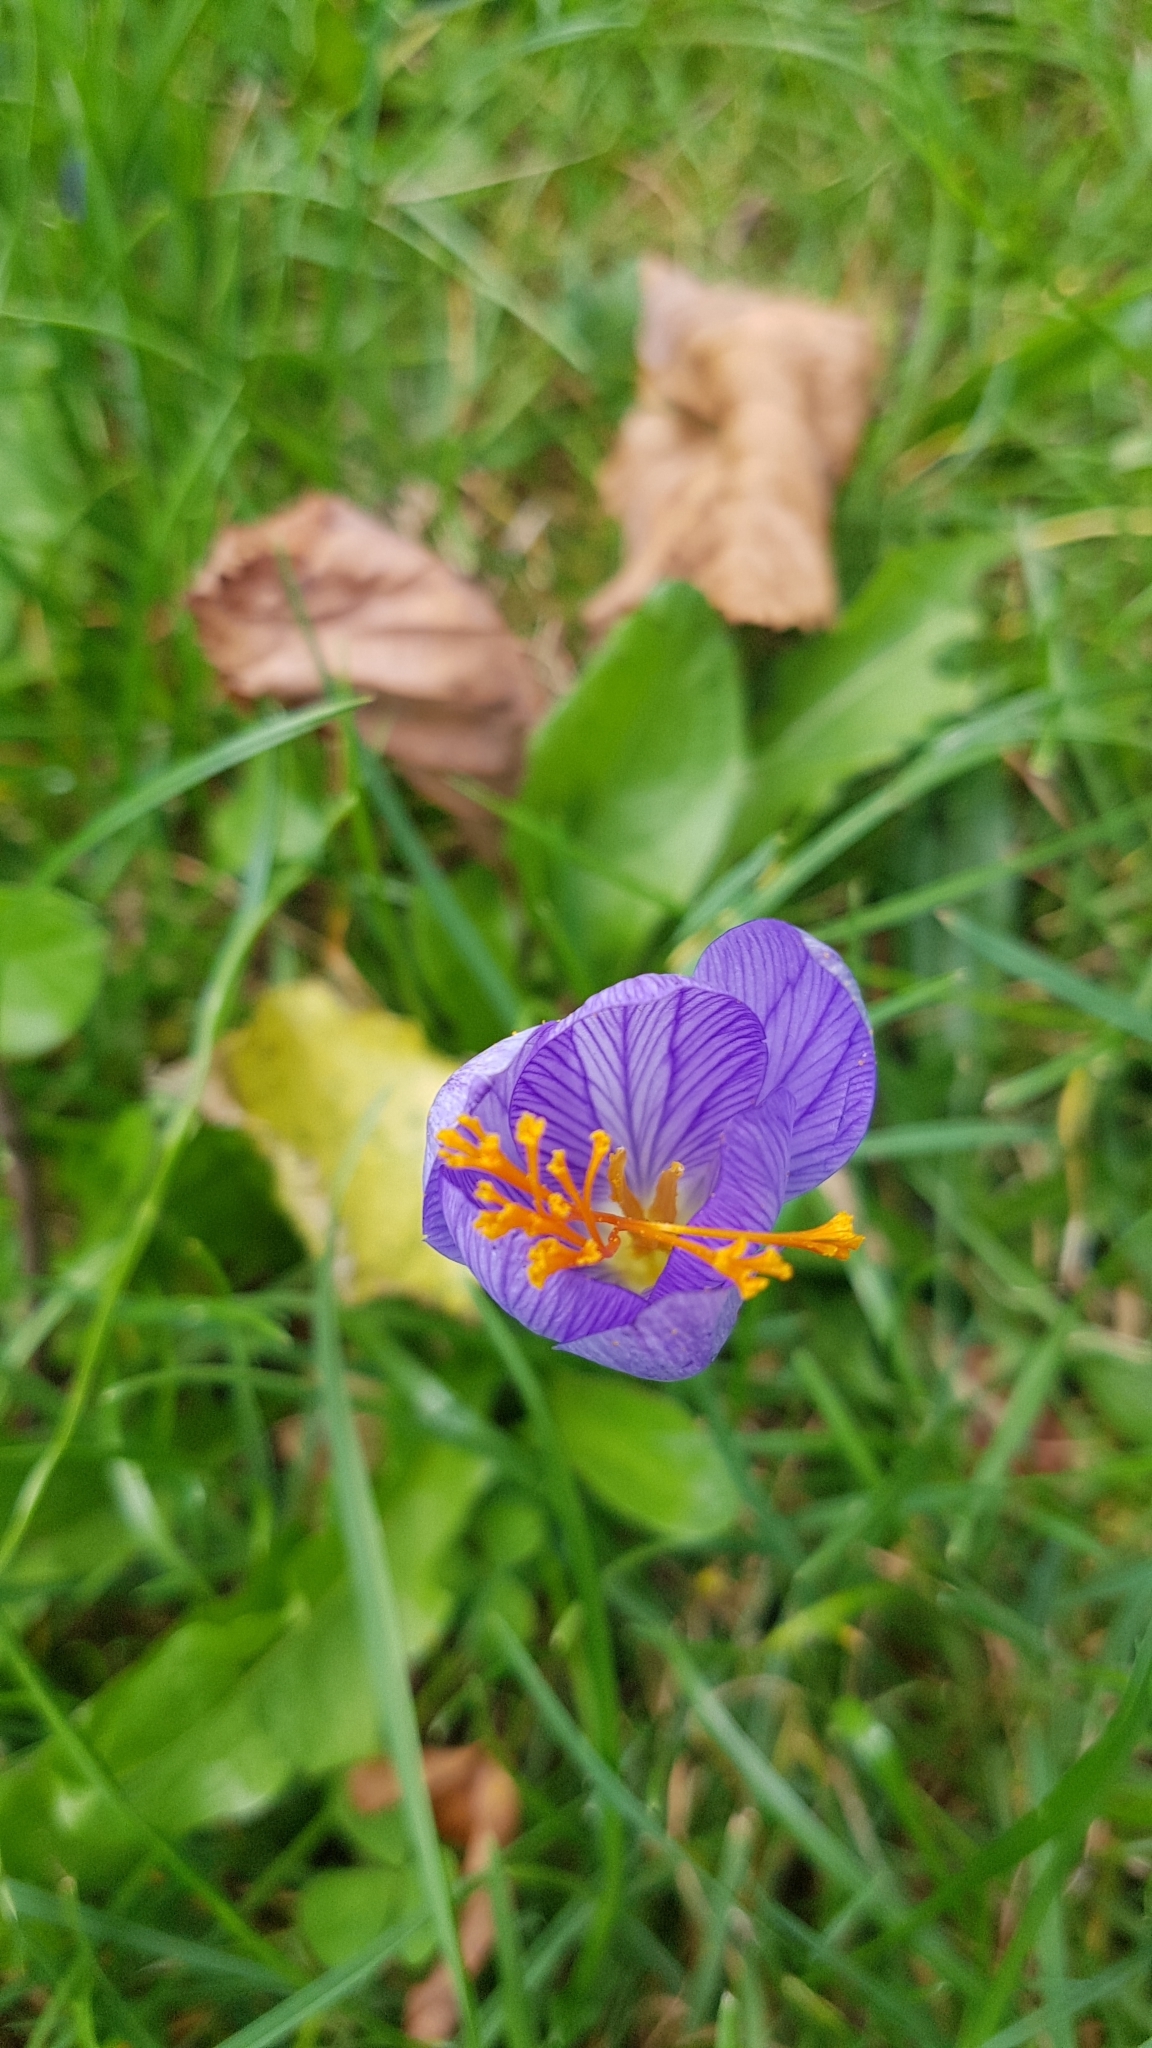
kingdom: Plantae
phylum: Tracheophyta
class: Liliopsida
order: Asparagales
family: Iridaceae
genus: Crocus
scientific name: Crocus speciosus
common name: Bieberstein's crocus
